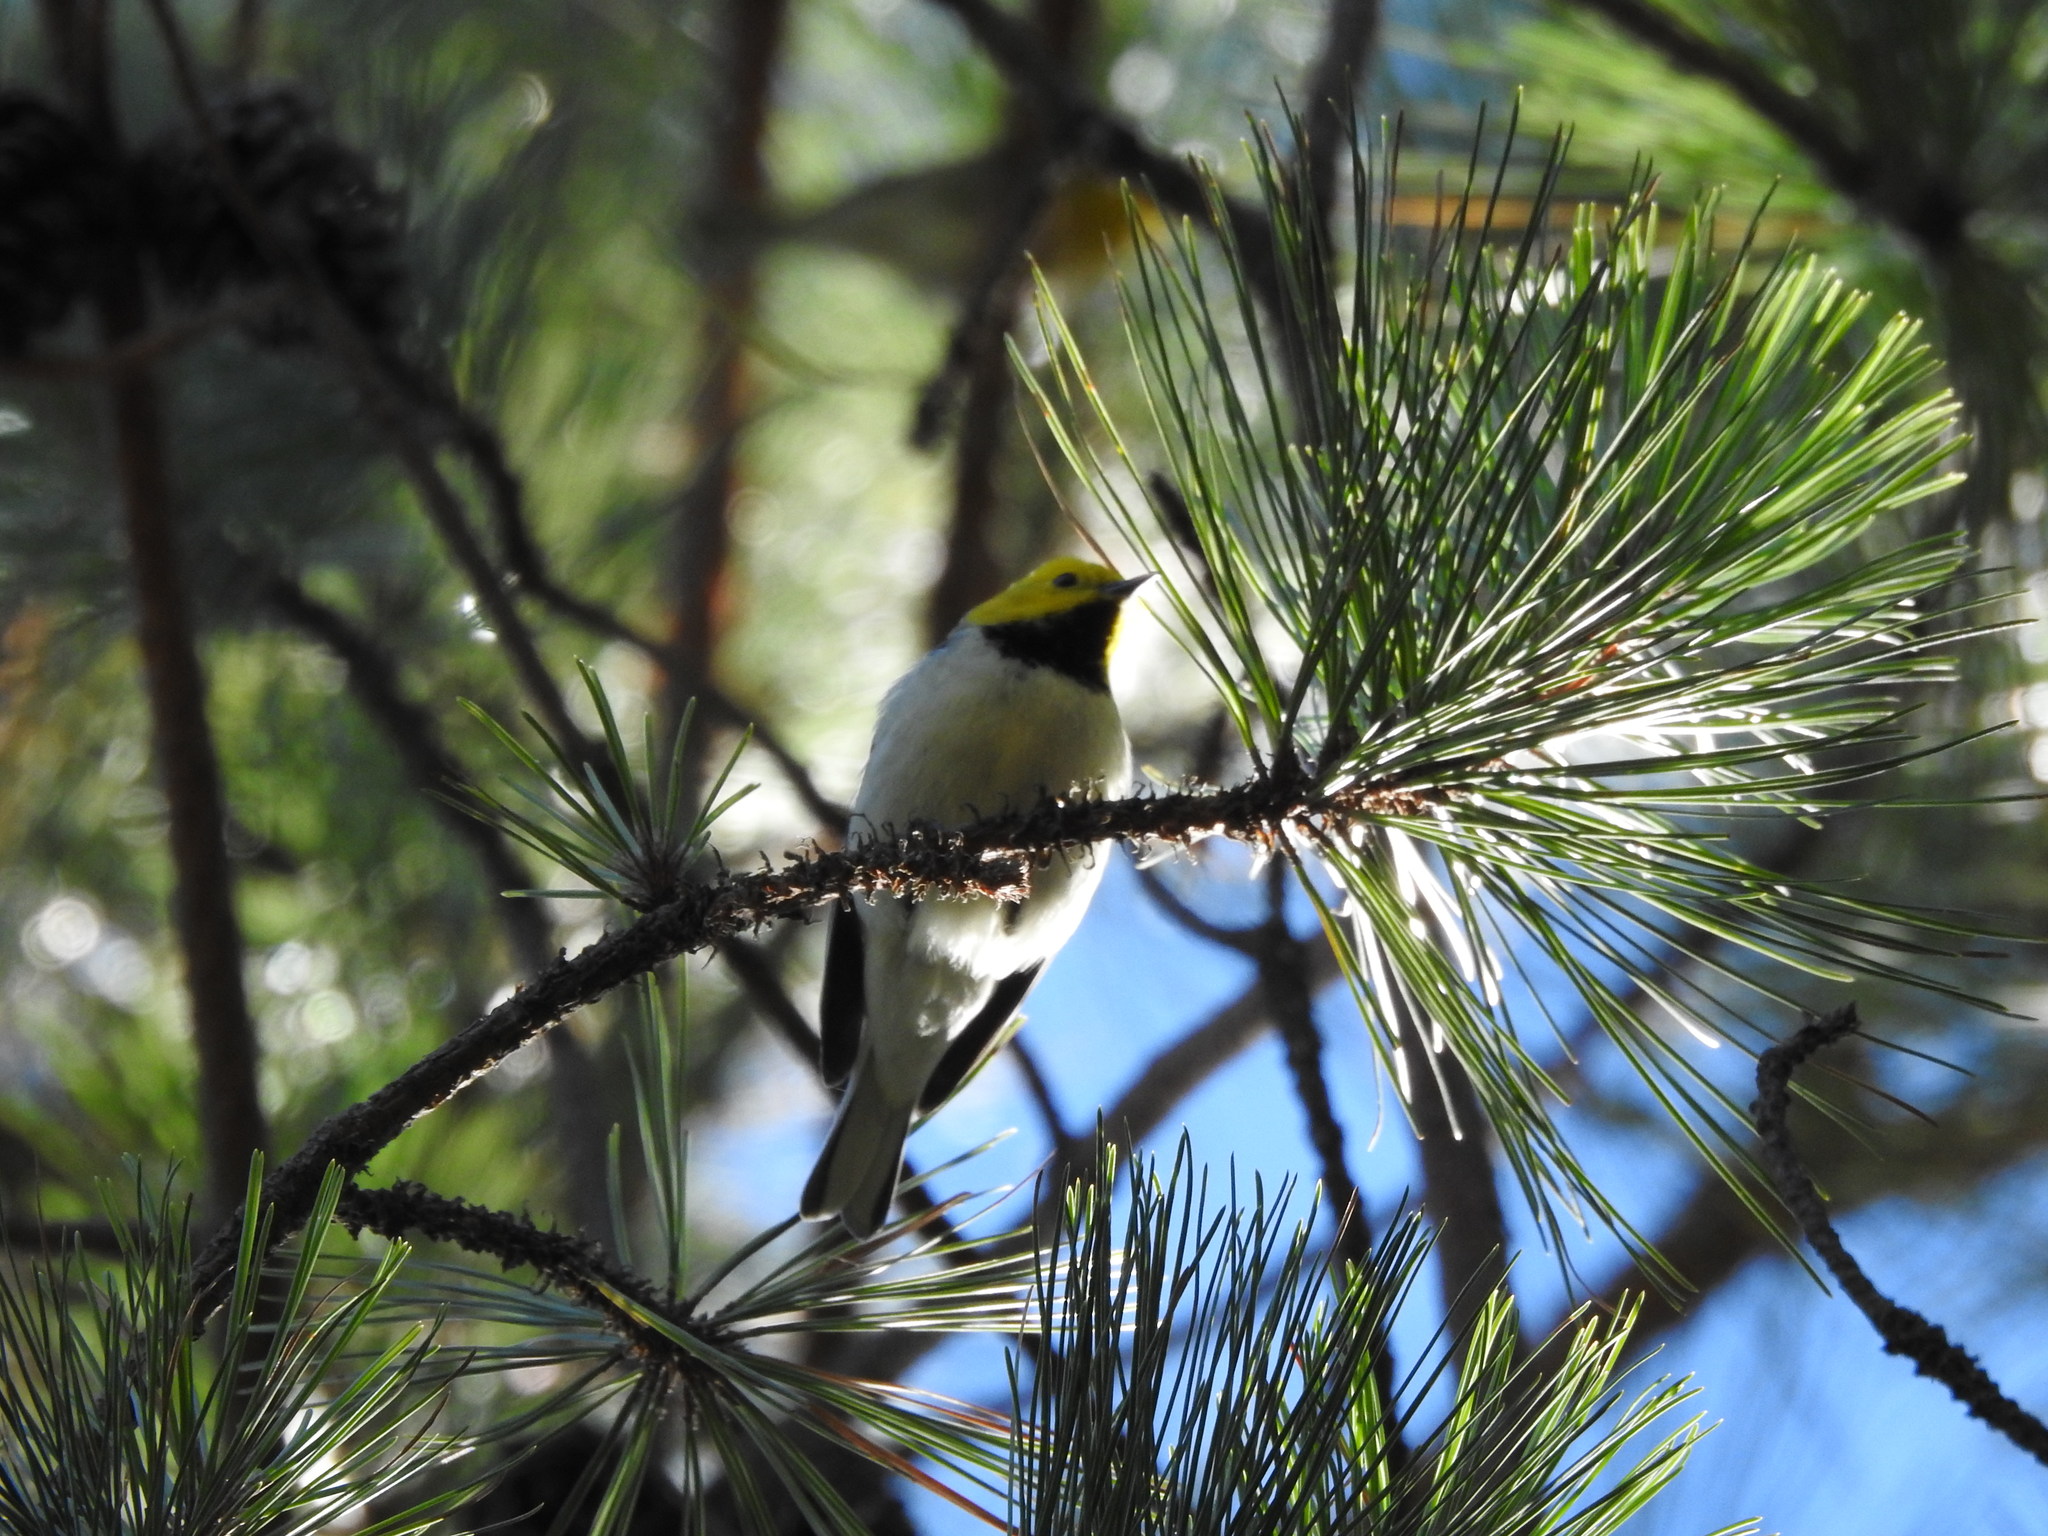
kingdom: Animalia
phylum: Chordata
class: Aves
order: Passeriformes
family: Parulidae
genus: Setophaga
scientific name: Setophaga occidentalis
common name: Hermit warbler
